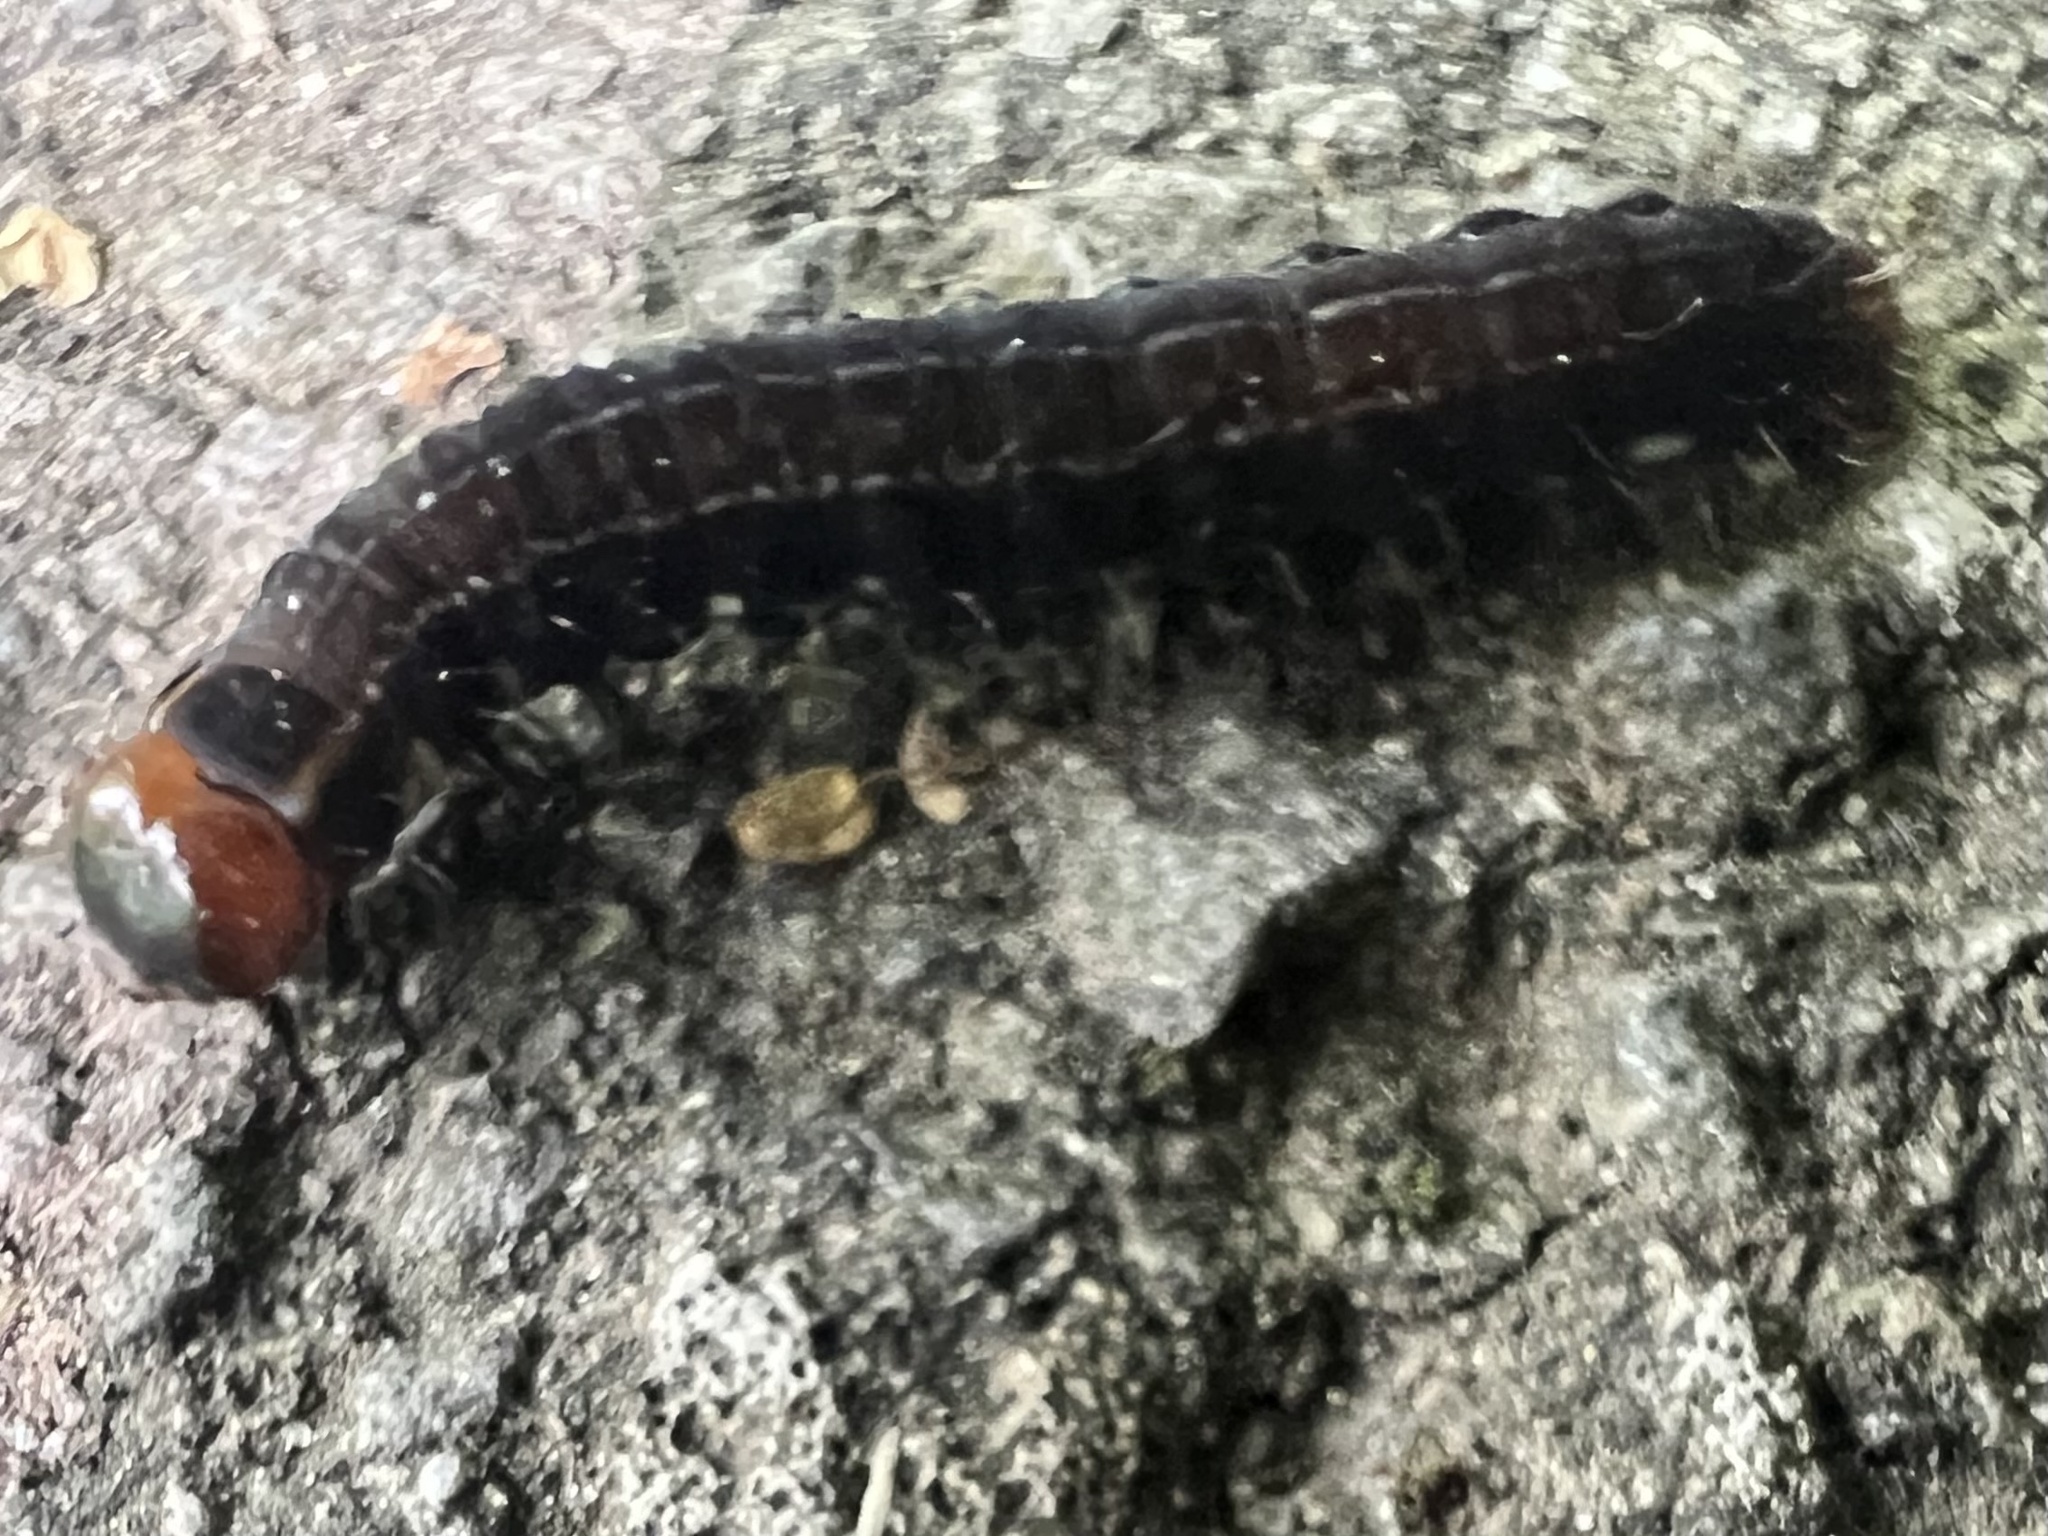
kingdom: Animalia
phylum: Arthropoda
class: Insecta
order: Lepidoptera
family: Noctuidae
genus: Eupsilia
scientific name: Eupsilia transversa
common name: Satellite
